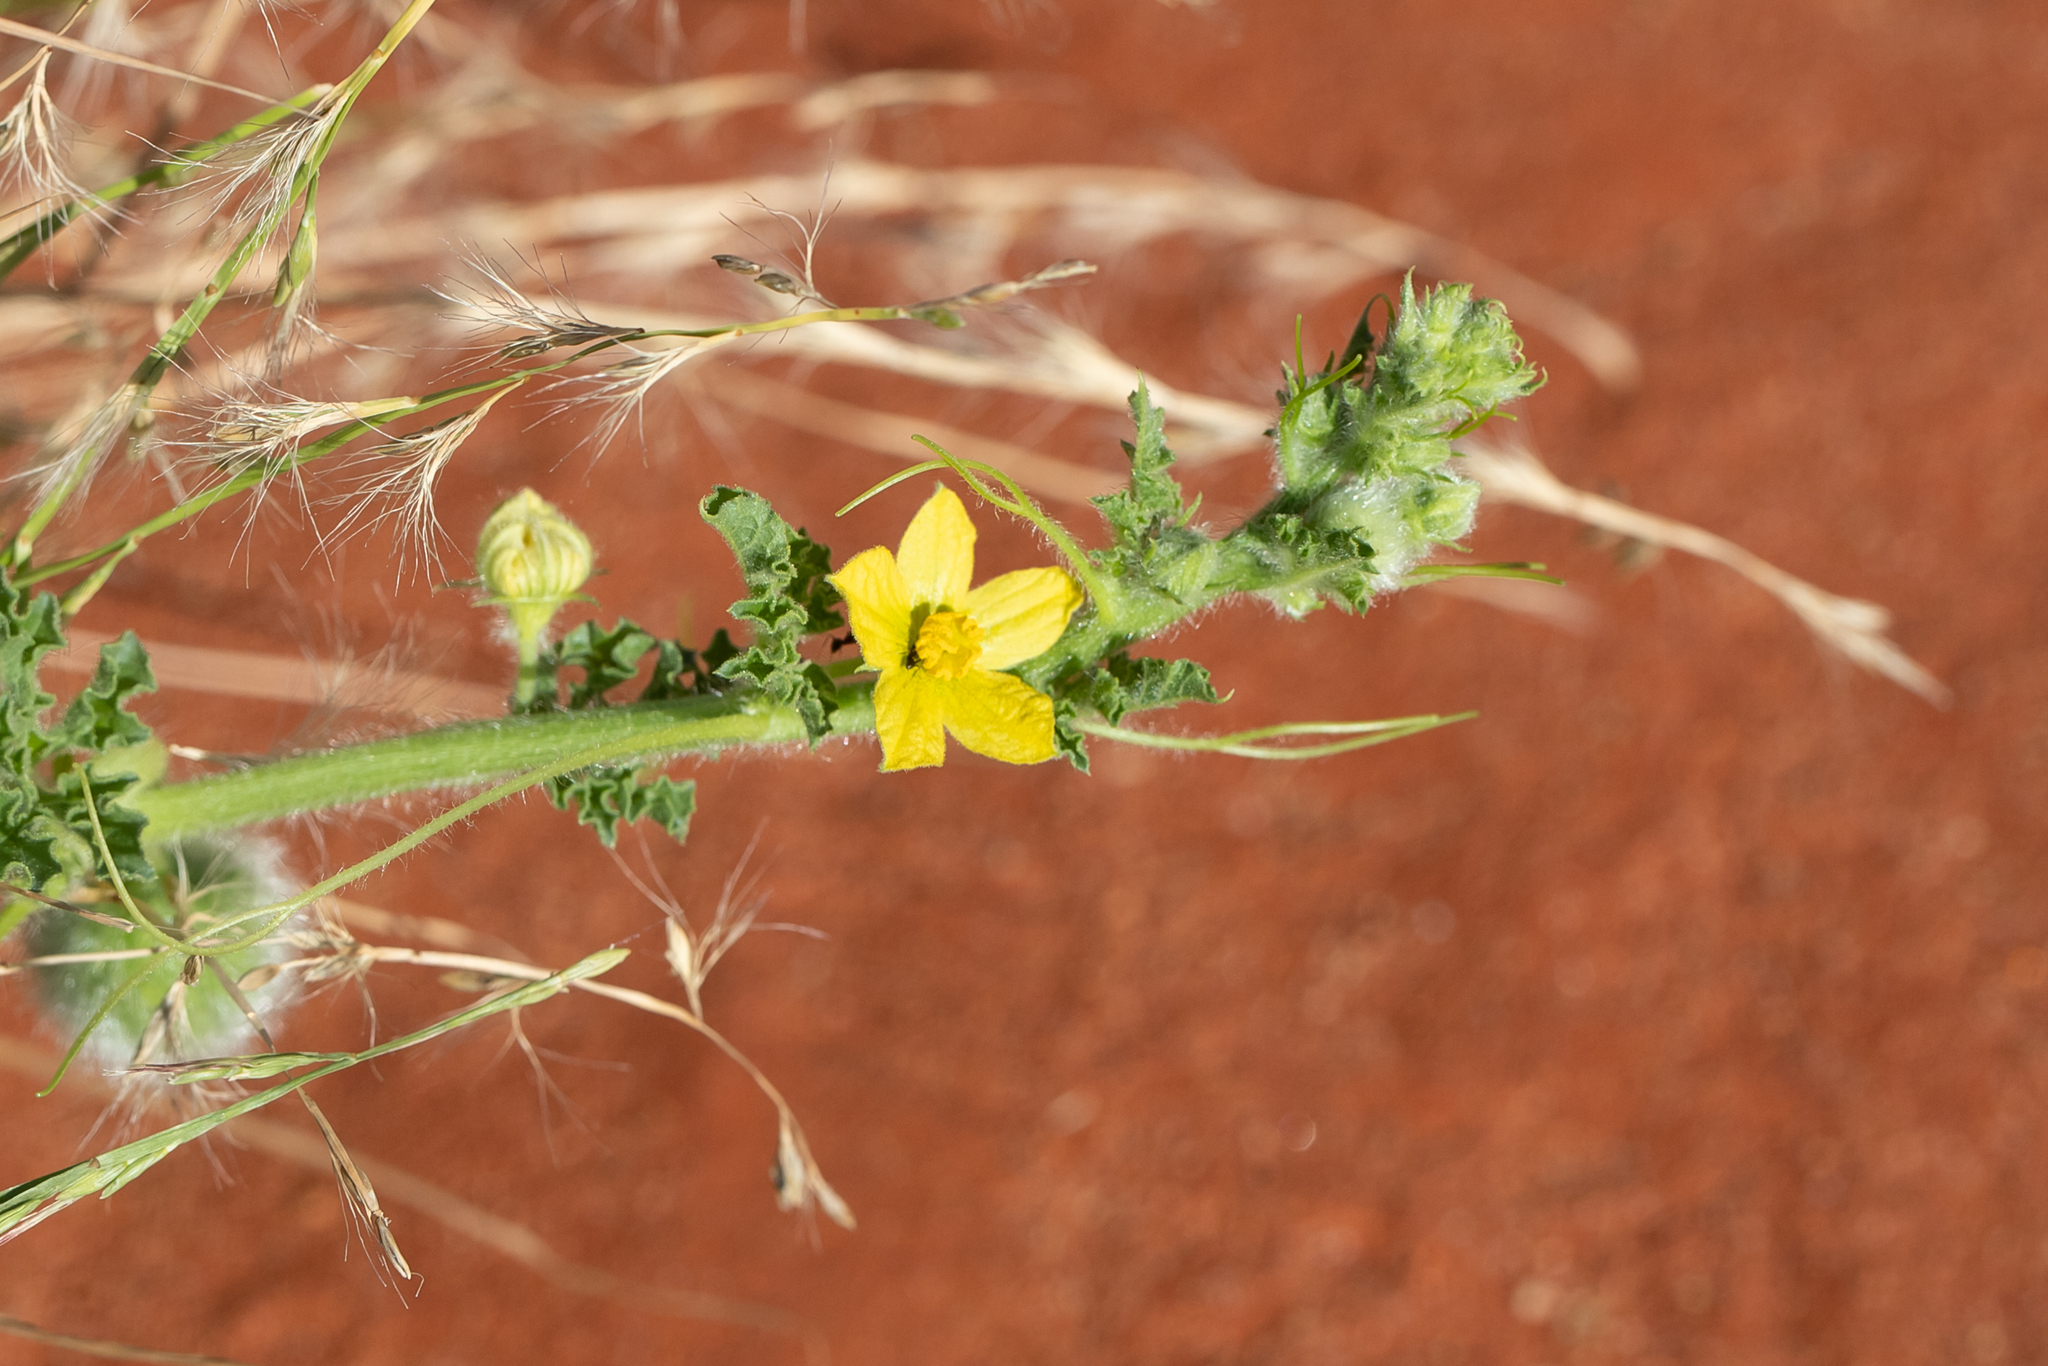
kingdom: Plantae
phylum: Tracheophyta
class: Magnoliopsida
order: Cucurbitales
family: Cucurbitaceae
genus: Citrullus
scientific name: Citrullus colocynthis
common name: Colocynth
